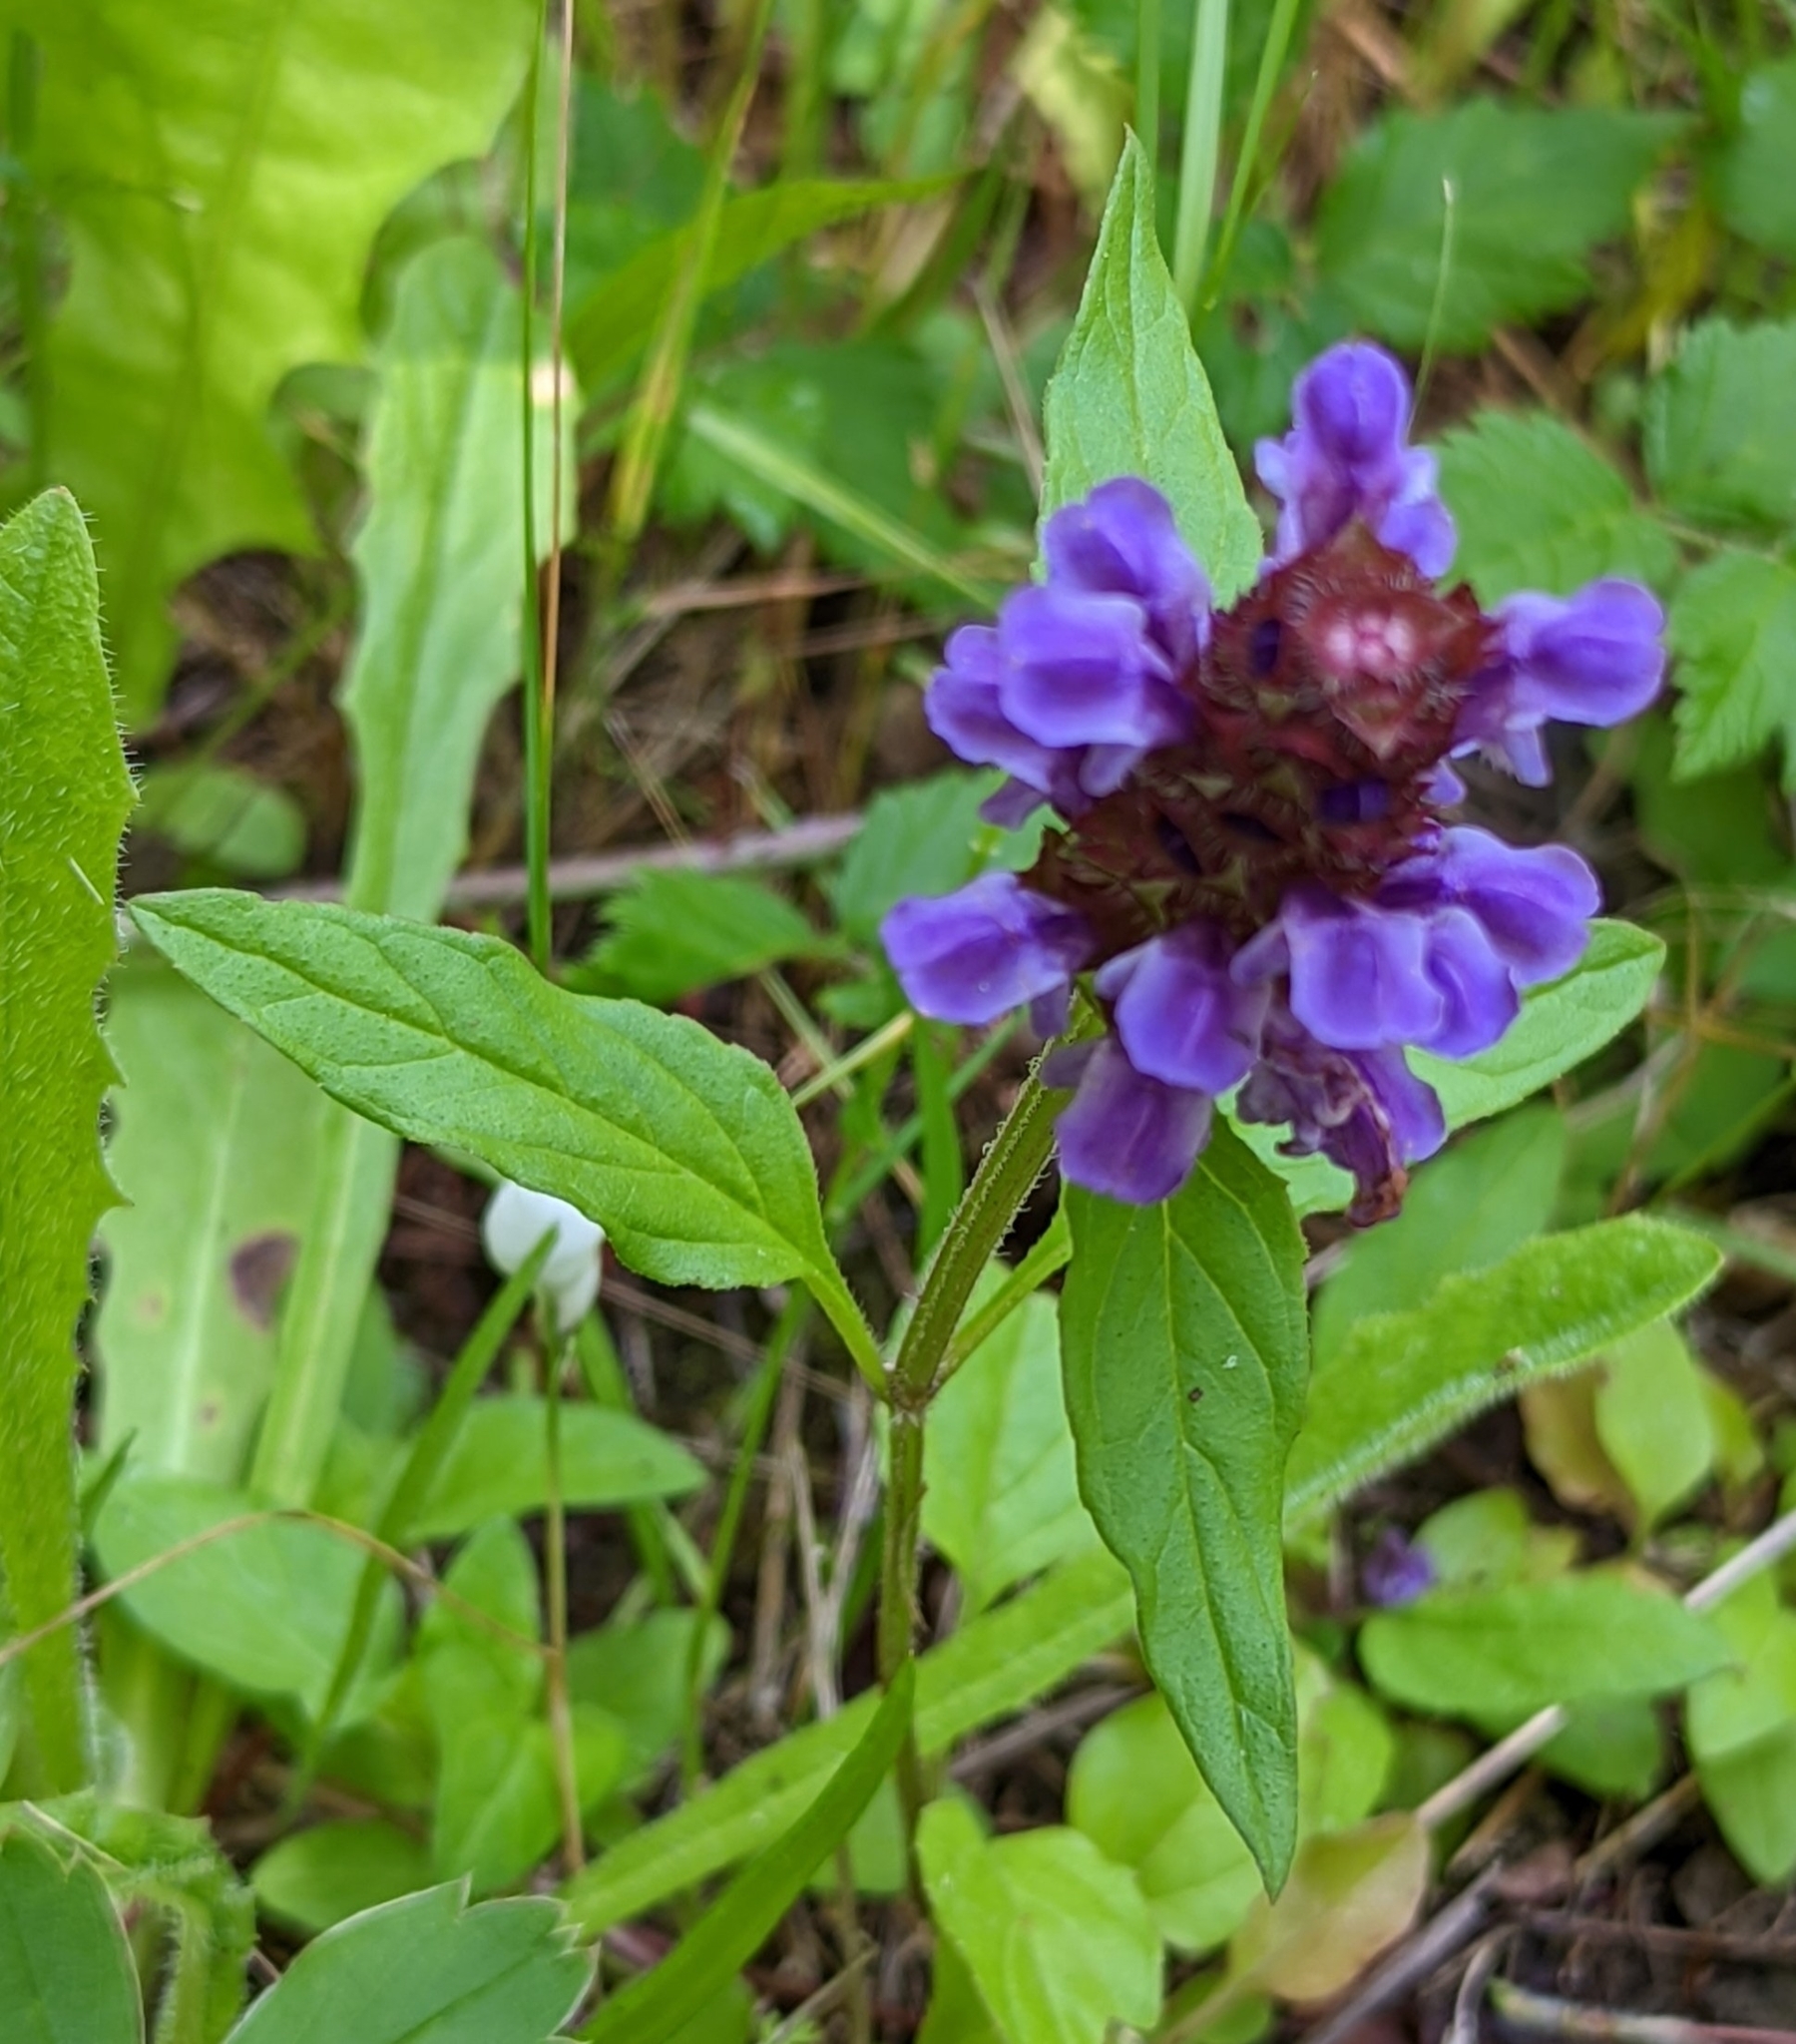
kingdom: Plantae
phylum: Tracheophyta
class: Magnoliopsida
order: Lamiales
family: Lamiaceae
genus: Prunella
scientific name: Prunella vulgaris
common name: Heal-all
